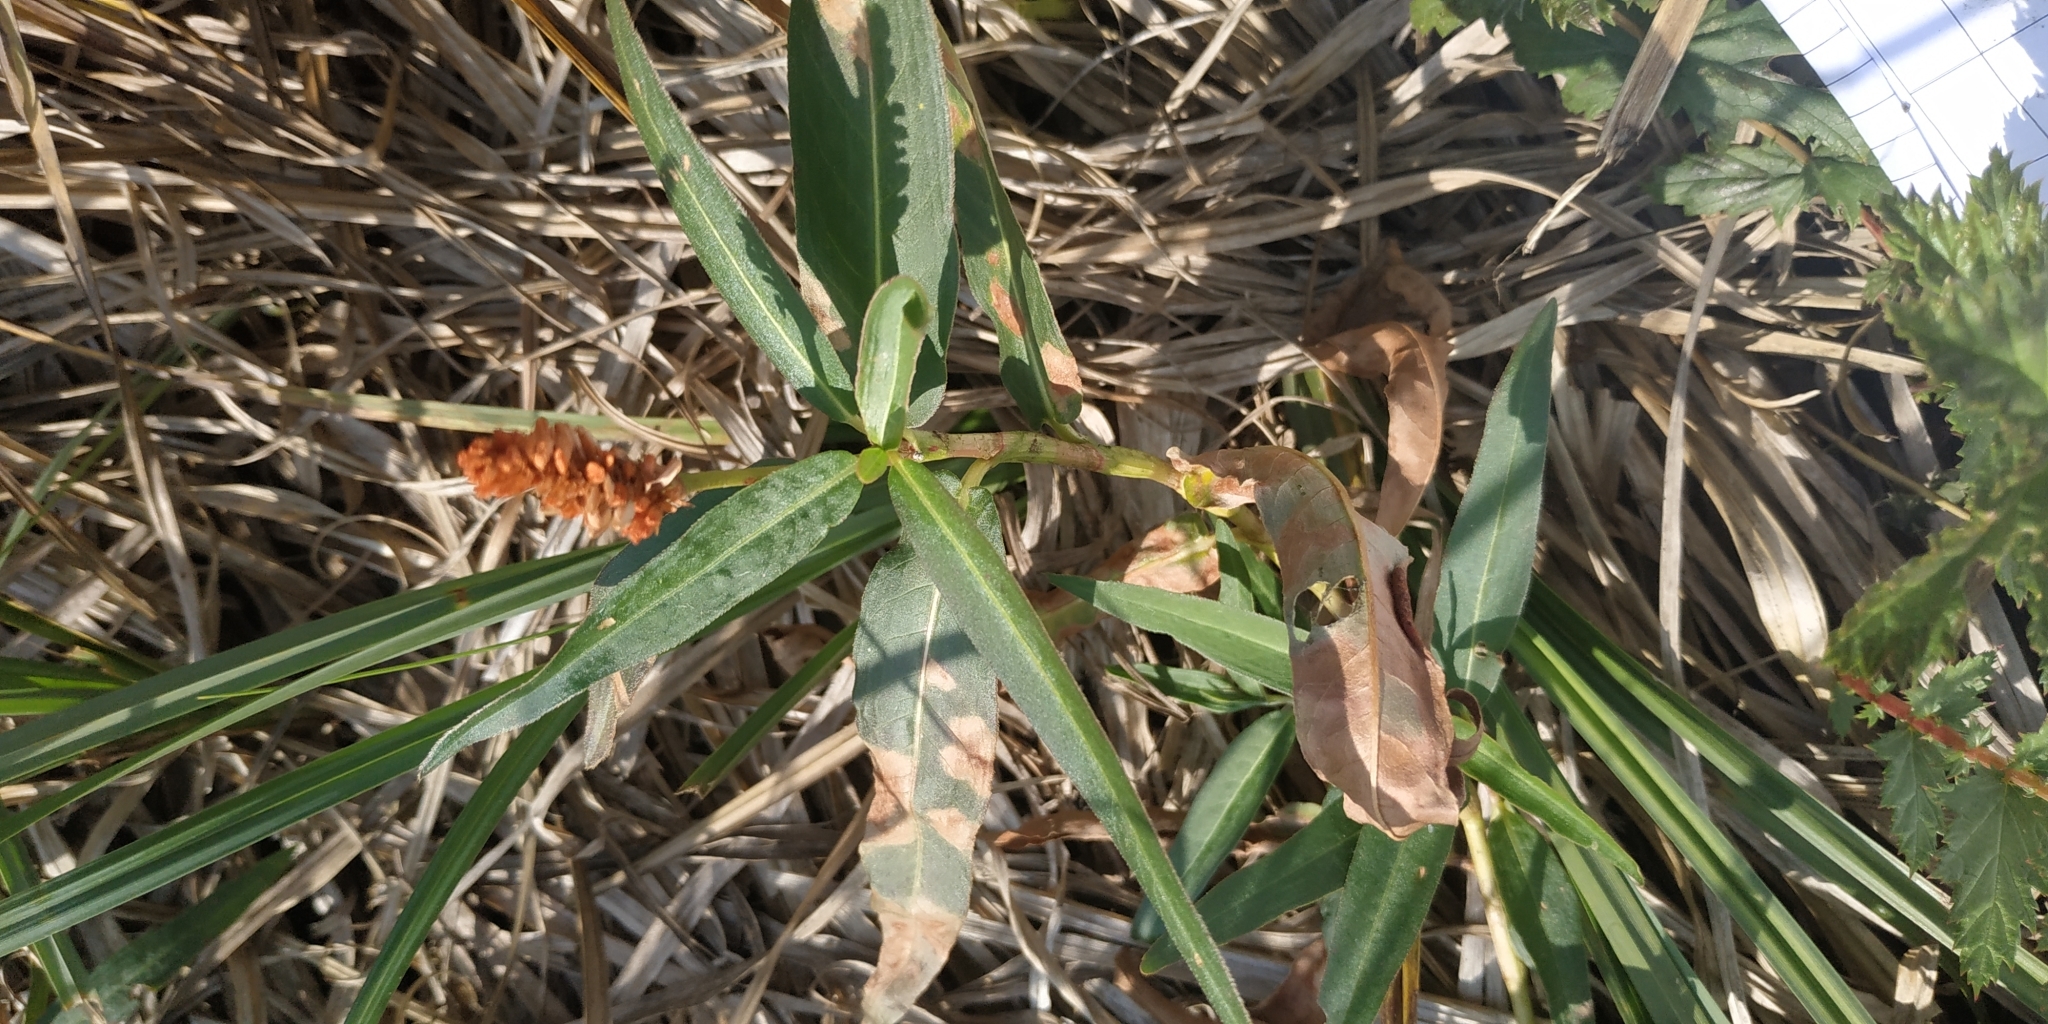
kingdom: Plantae
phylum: Tracheophyta
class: Magnoliopsida
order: Caryophyllales
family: Polygonaceae
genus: Persicaria
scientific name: Persicaria amphibia
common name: Amphibious bistort
